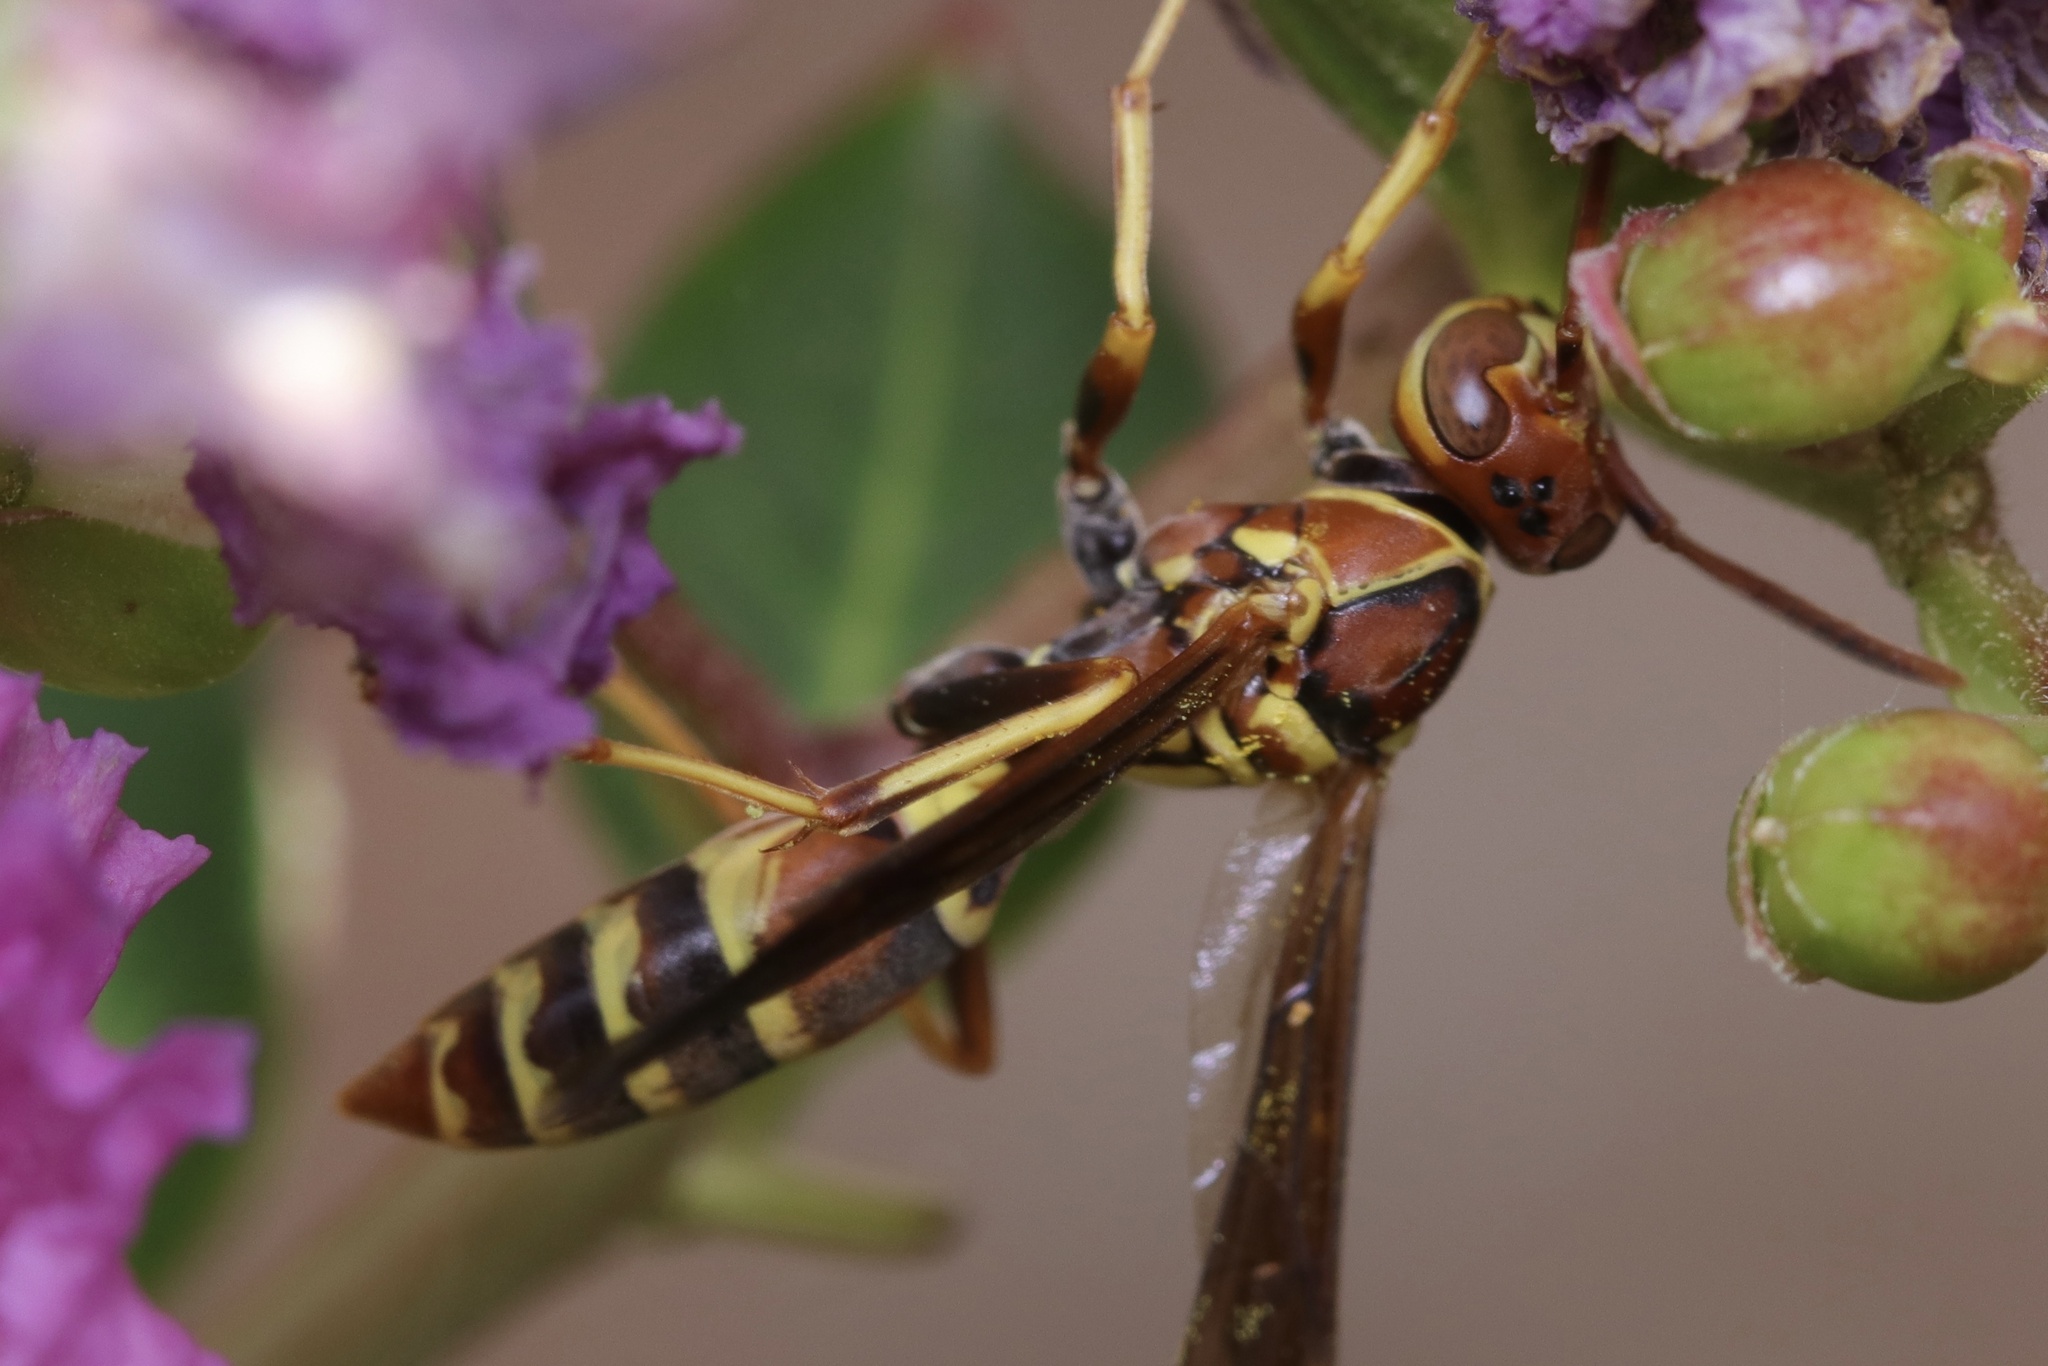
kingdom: Animalia
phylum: Arthropoda
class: Insecta
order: Hymenoptera
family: Eumenidae
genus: Polistes
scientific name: Polistes dorsalis
